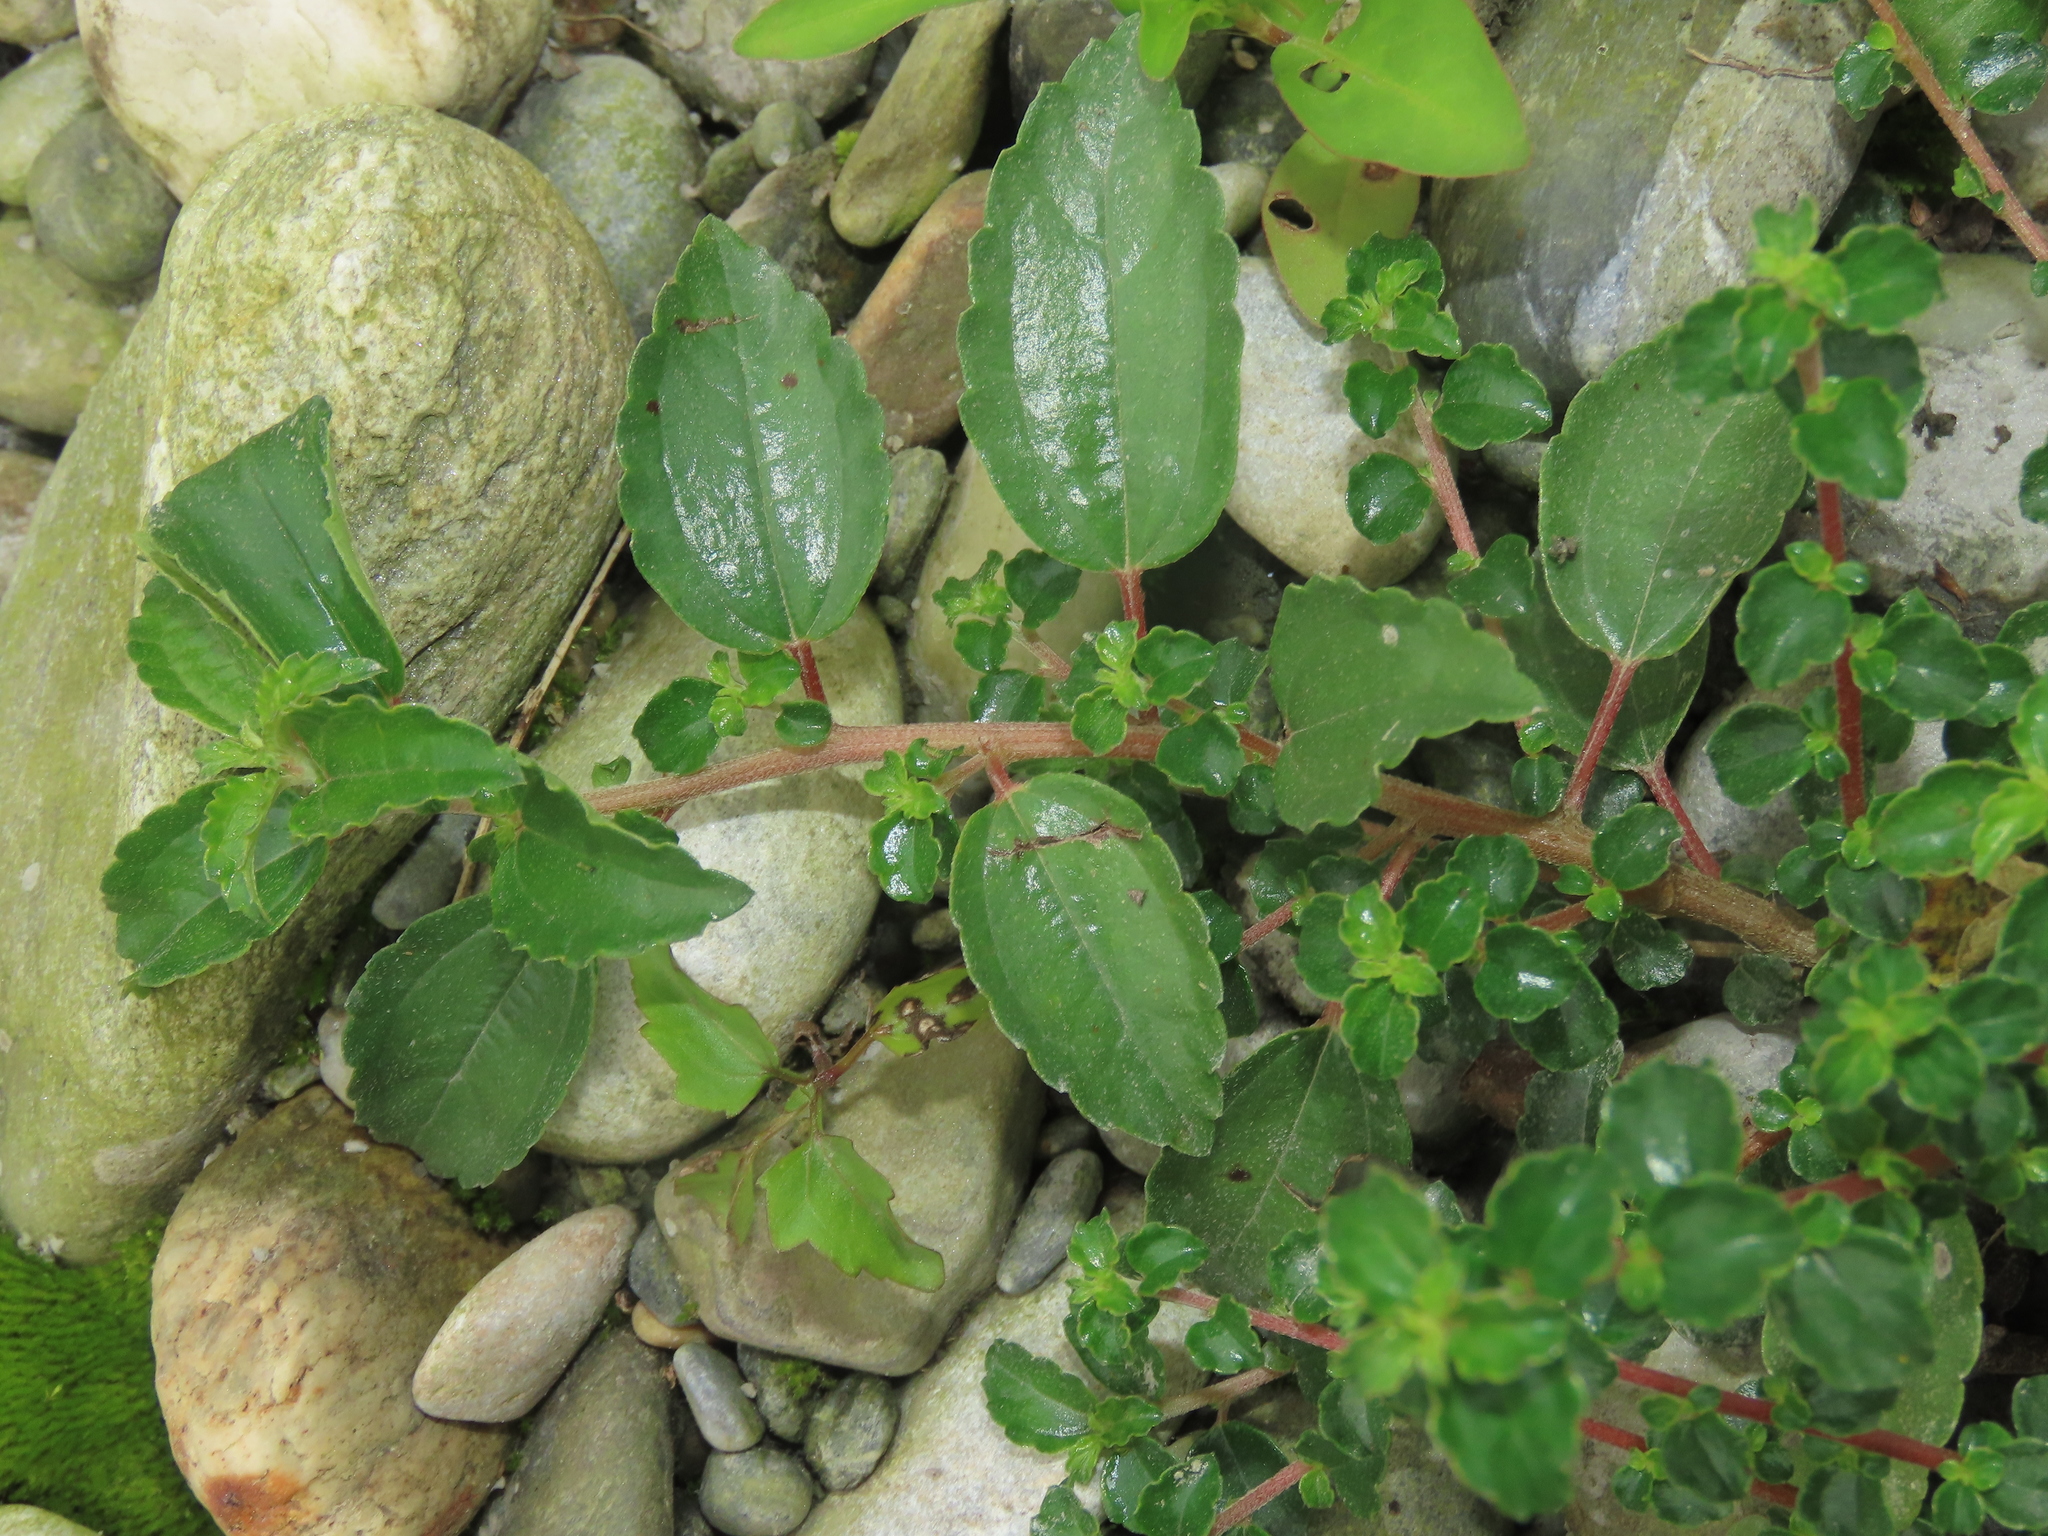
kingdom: Plantae
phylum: Tracheophyta
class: Magnoliopsida
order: Rosales
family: Urticaceae
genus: Pouzolzia
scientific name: Pouzolzia sanguinea
